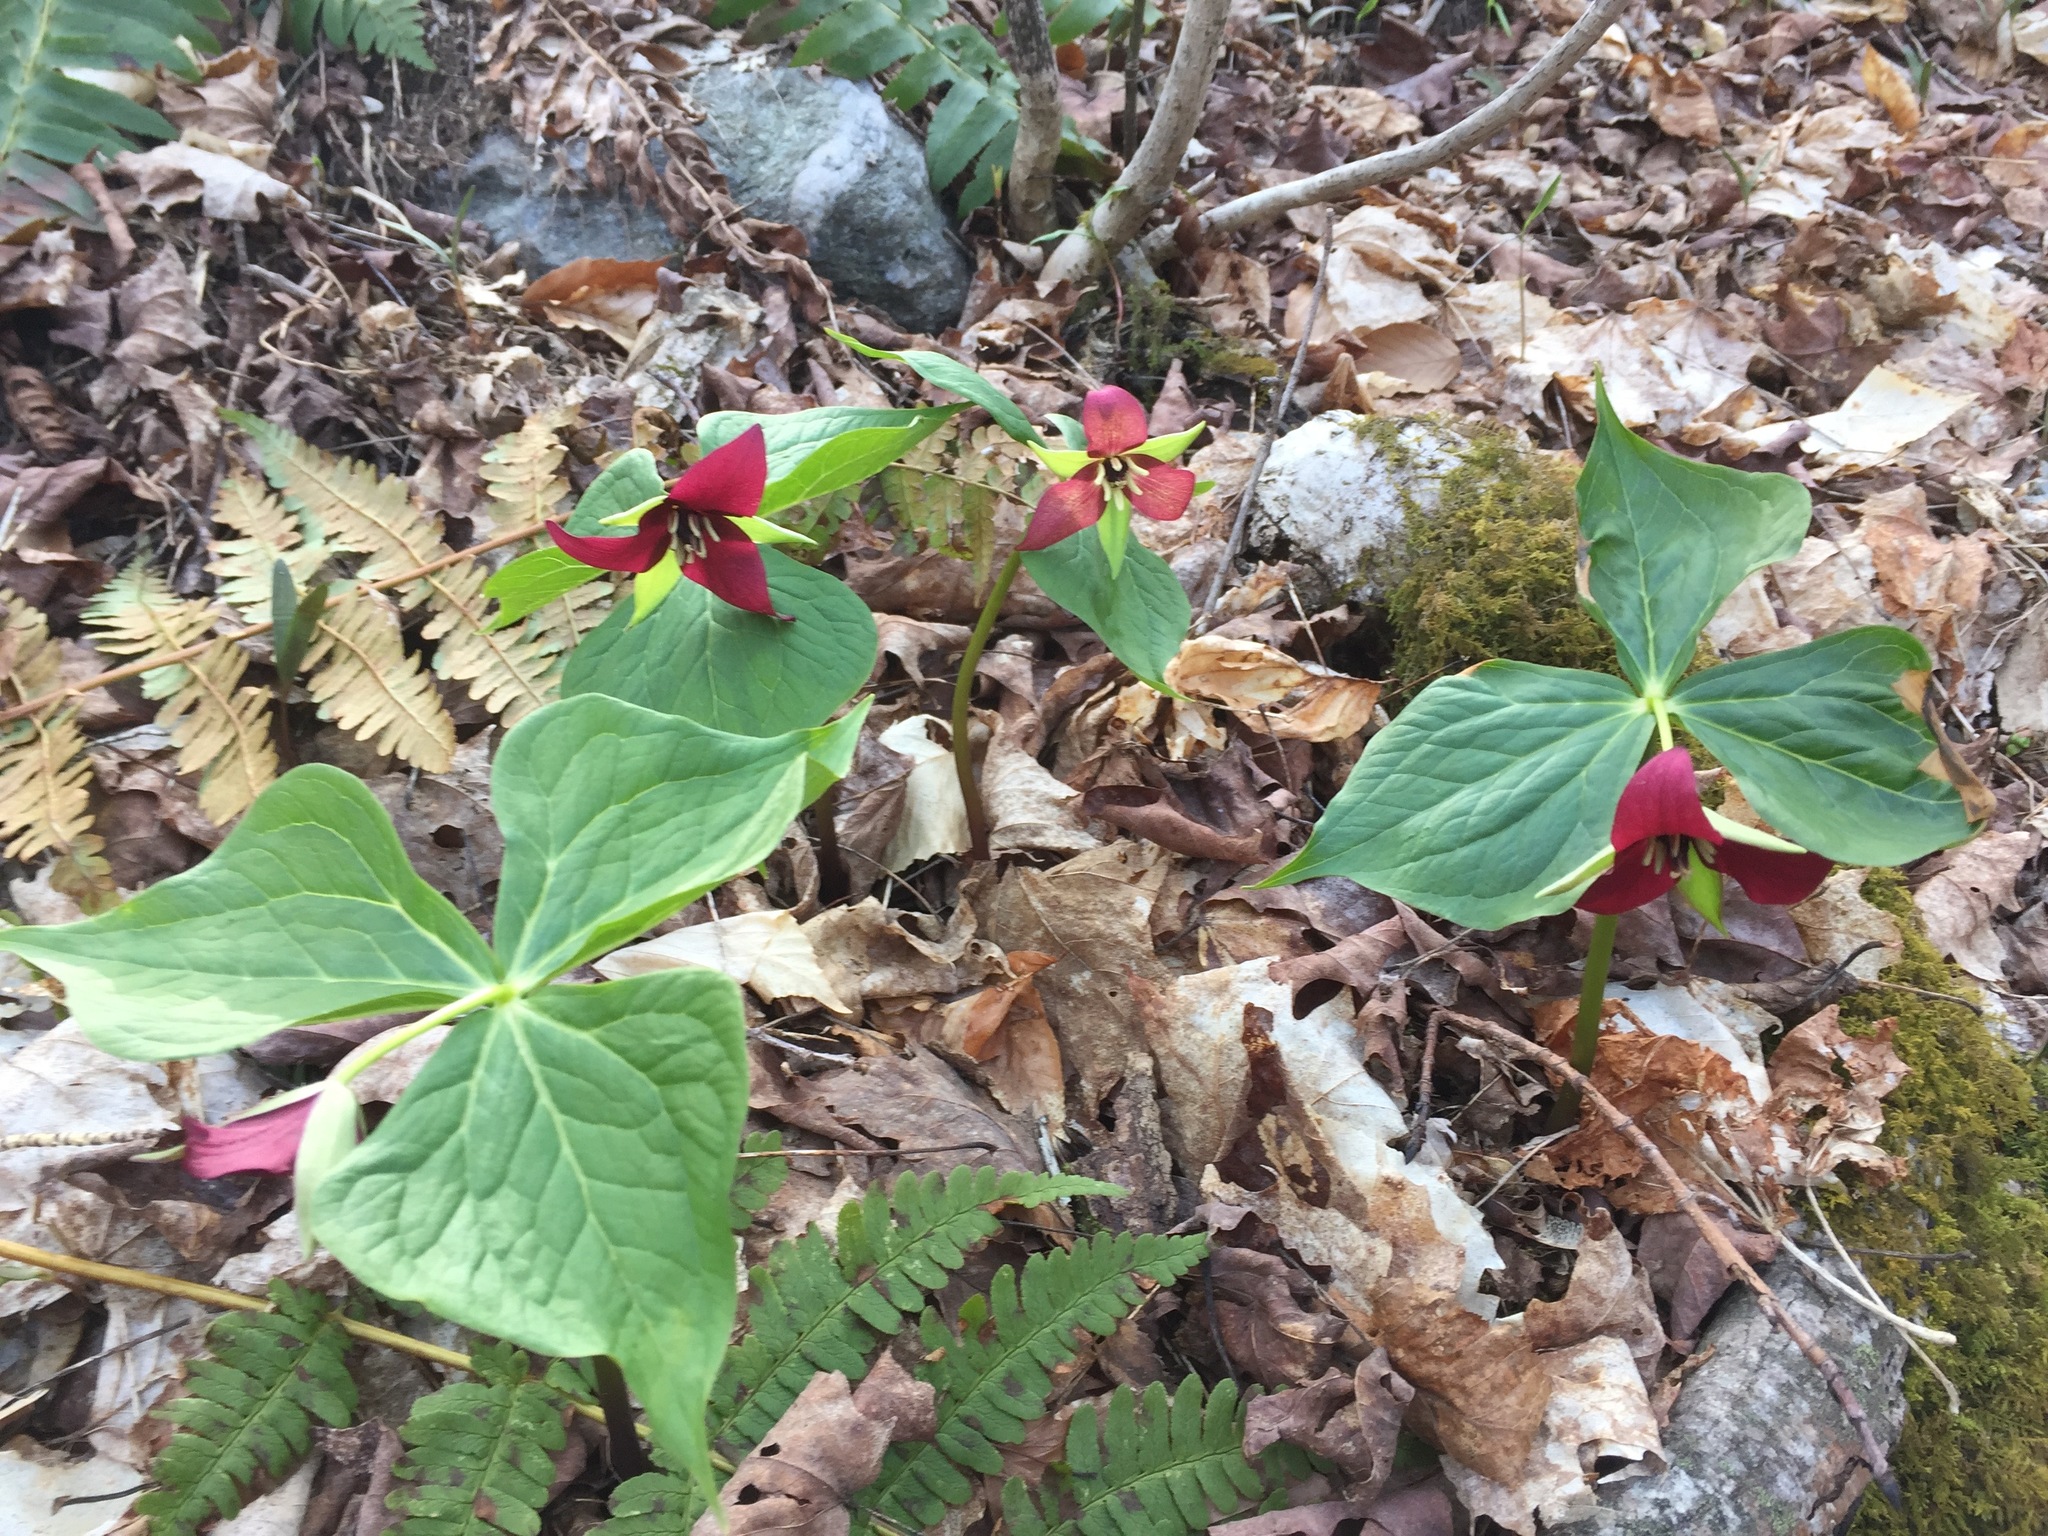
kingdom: Plantae
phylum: Tracheophyta
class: Liliopsida
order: Liliales
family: Melanthiaceae
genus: Trillium
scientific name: Trillium erectum
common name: Purple trillium
